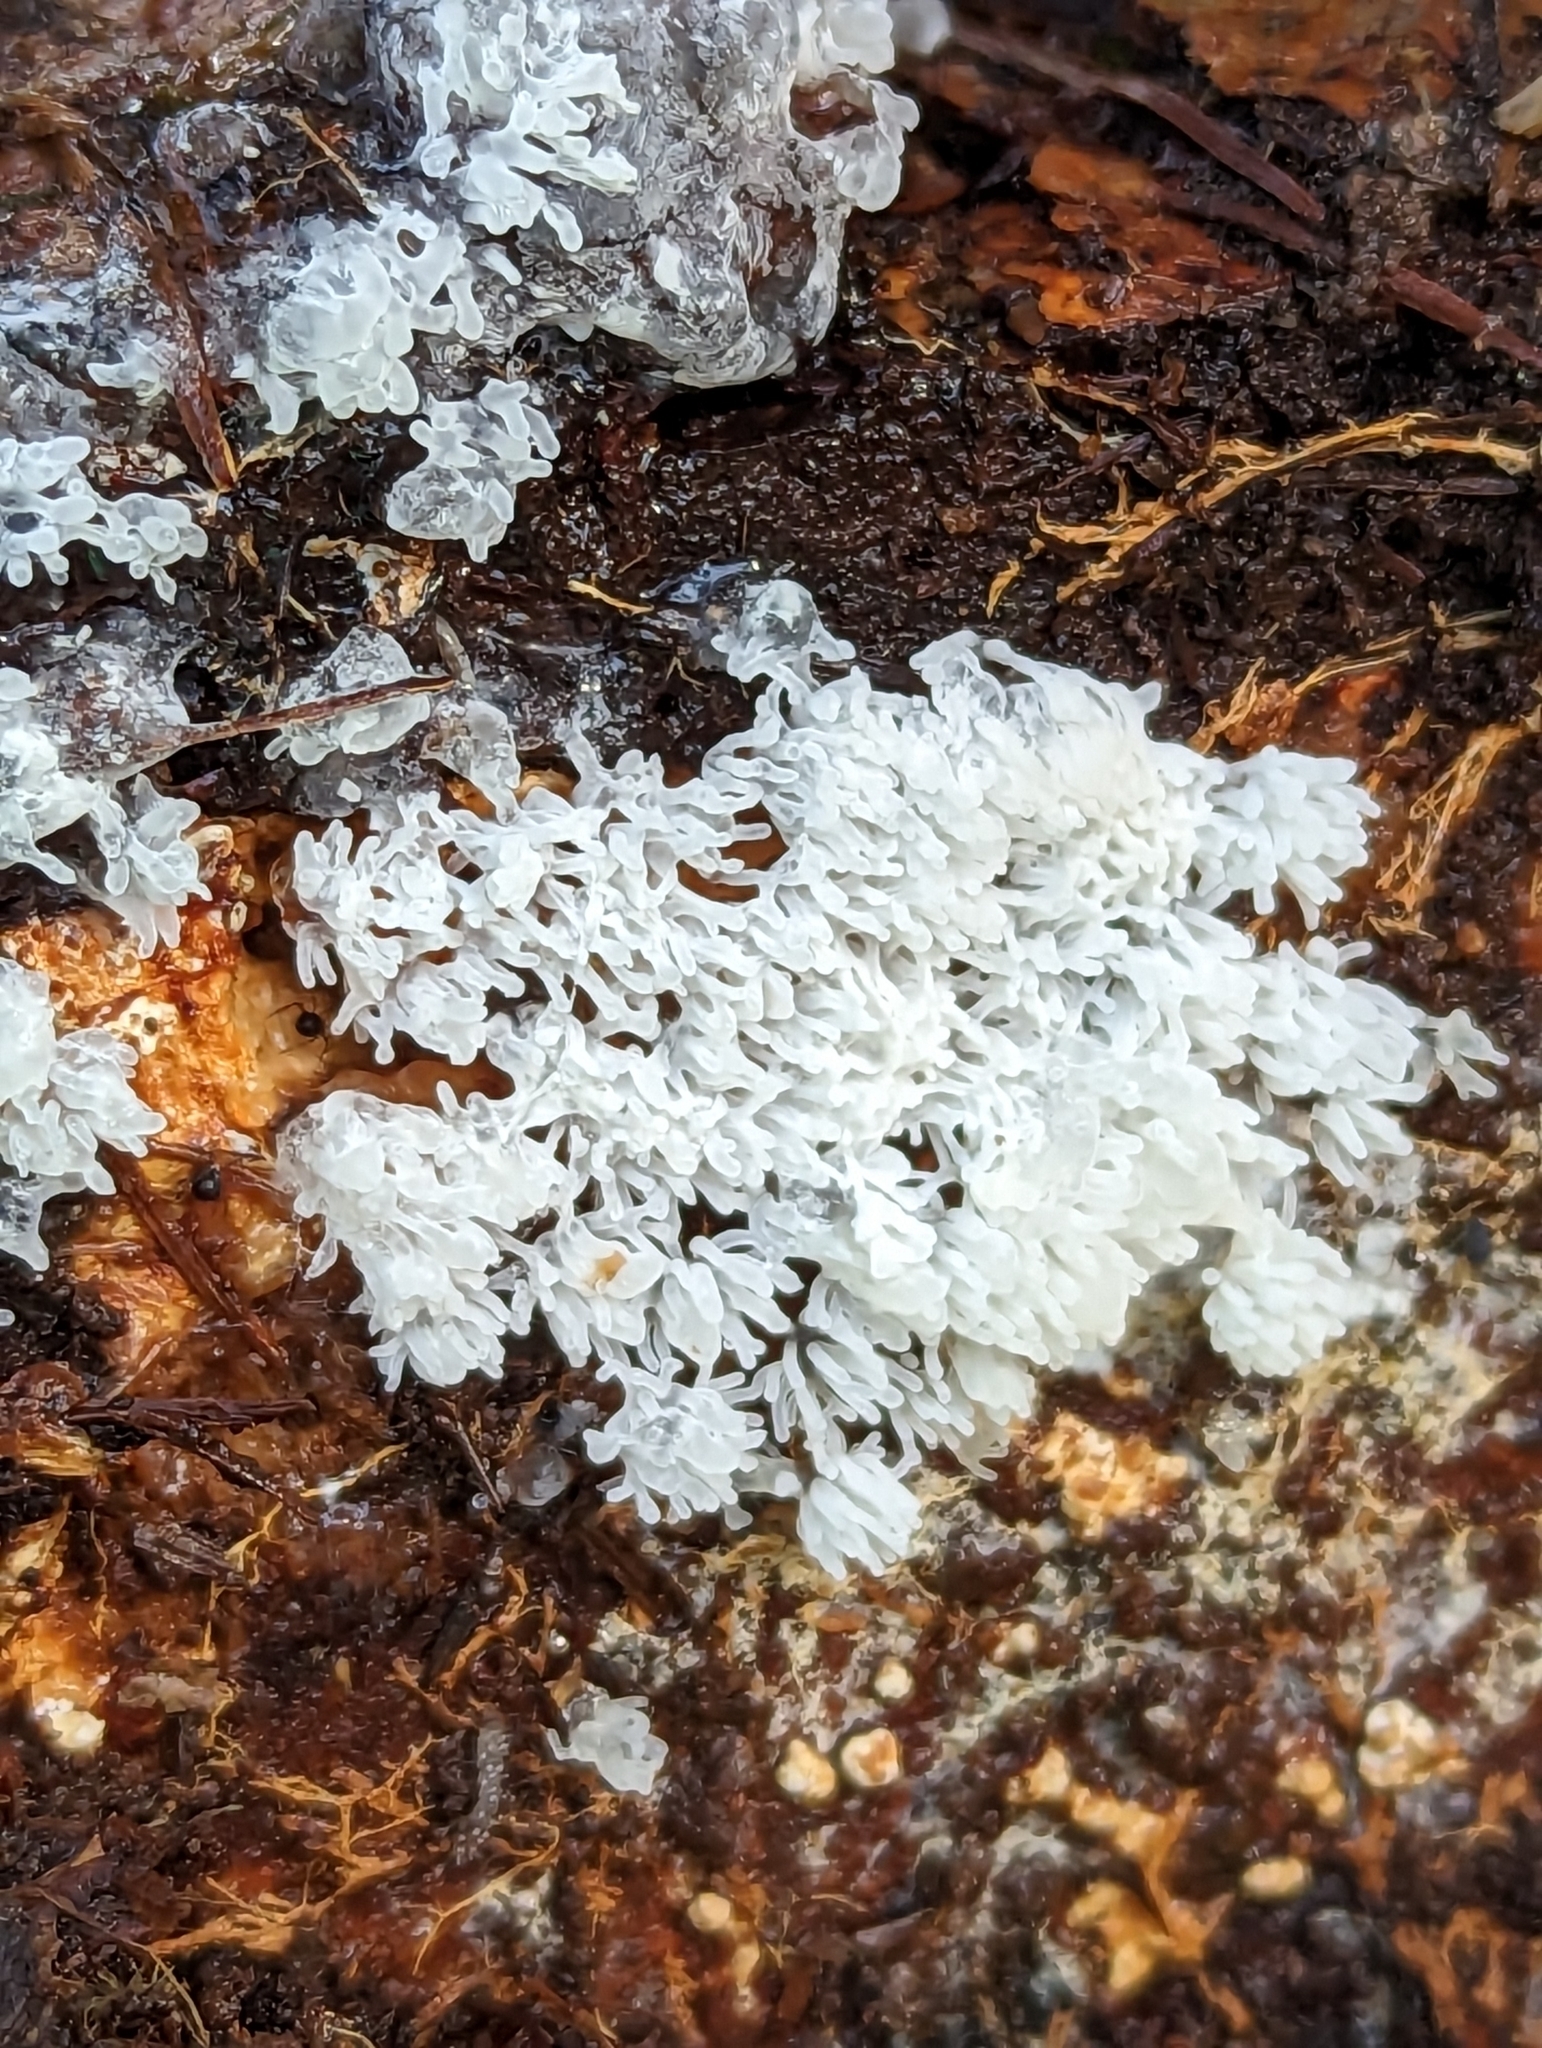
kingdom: Protozoa
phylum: Mycetozoa
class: Protosteliomycetes
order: Ceratiomyxales
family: Ceratiomyxaceae
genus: Ceratiomyxa
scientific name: Ceratiomyxa fruticulosa
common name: Honeycomb coral slime mold
